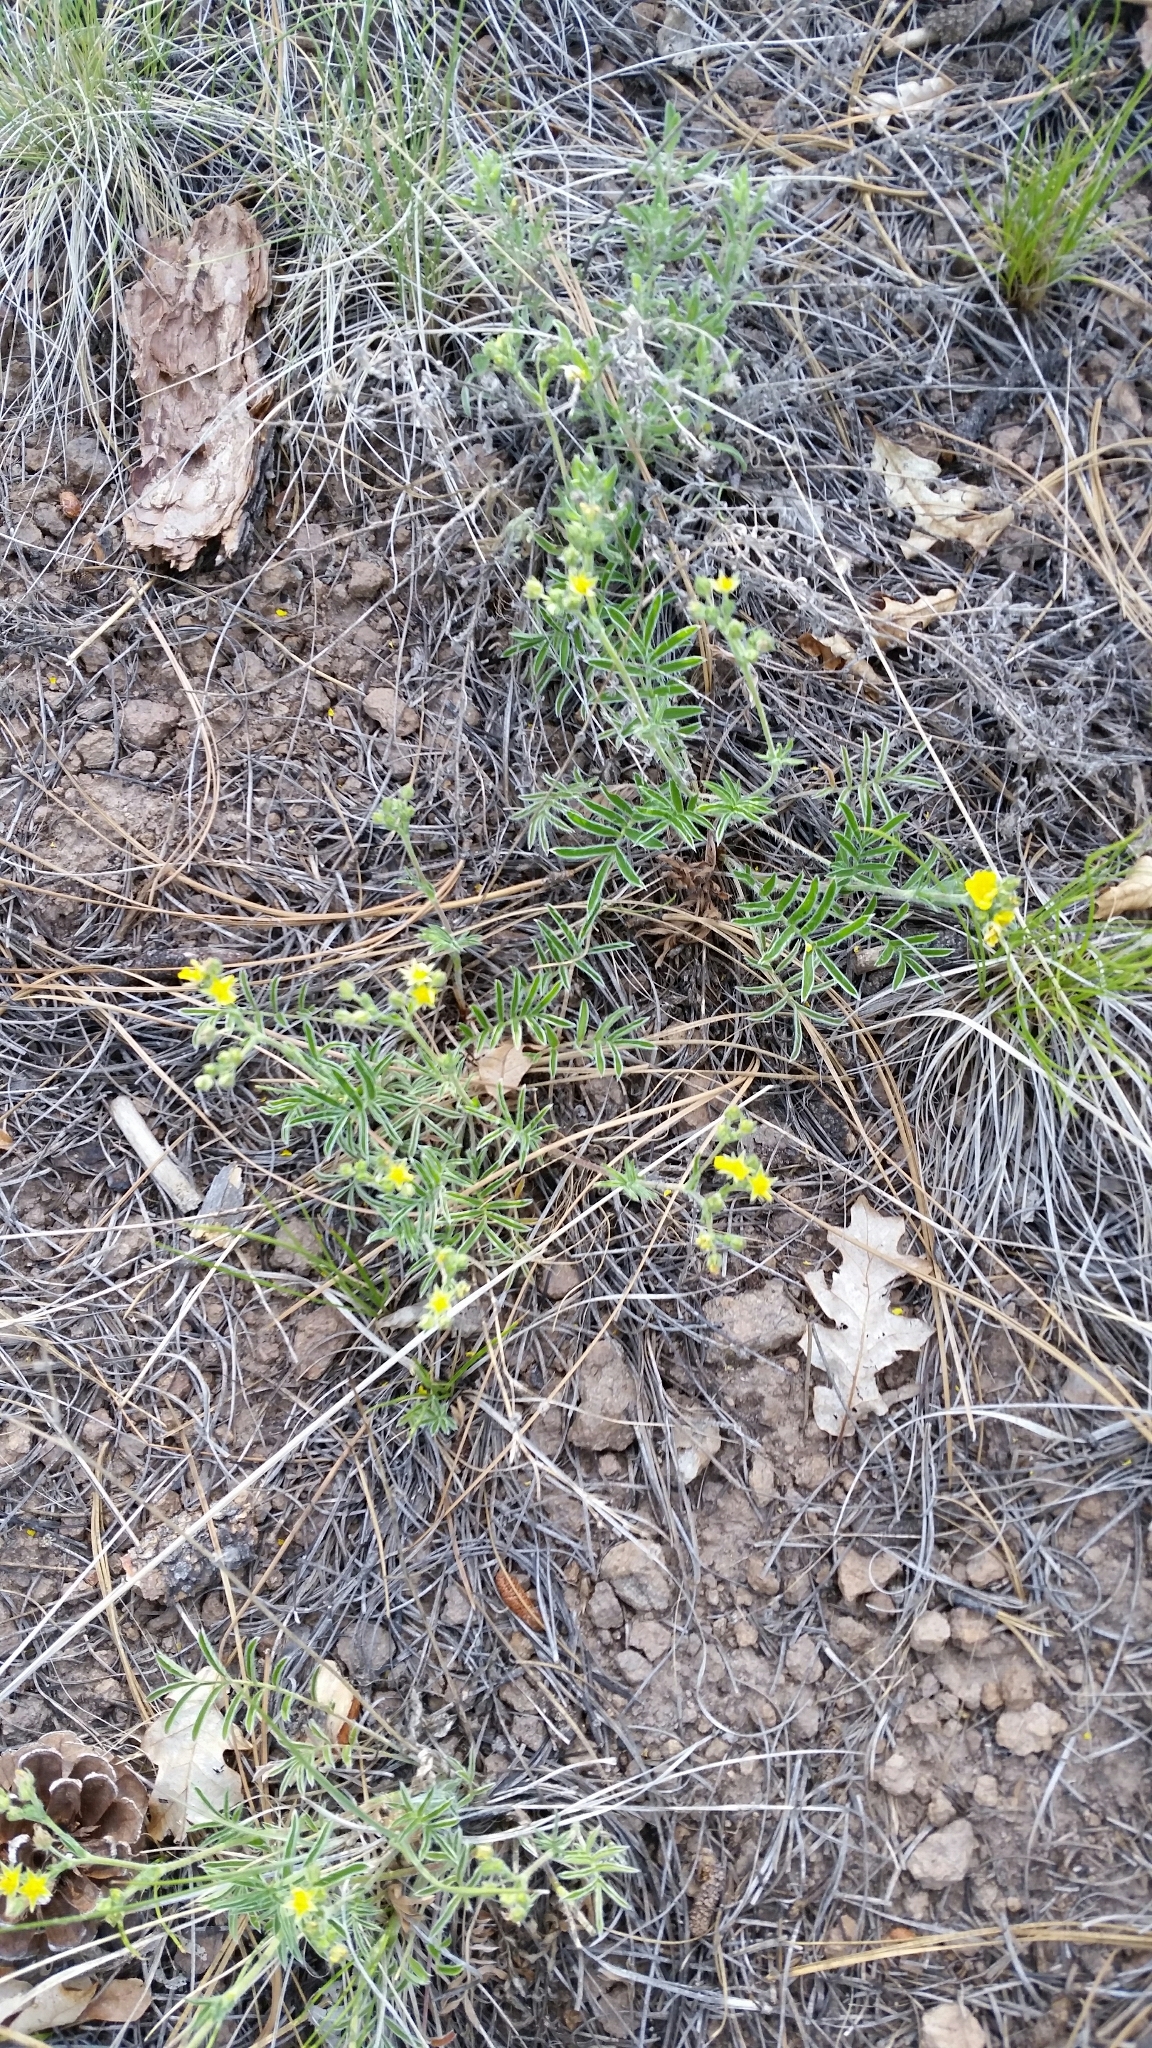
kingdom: Plantae
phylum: Tracheophyta
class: Magnoliopsida
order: Rosales
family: Rosaceae
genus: Potentilla
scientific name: Potentilla crinita
